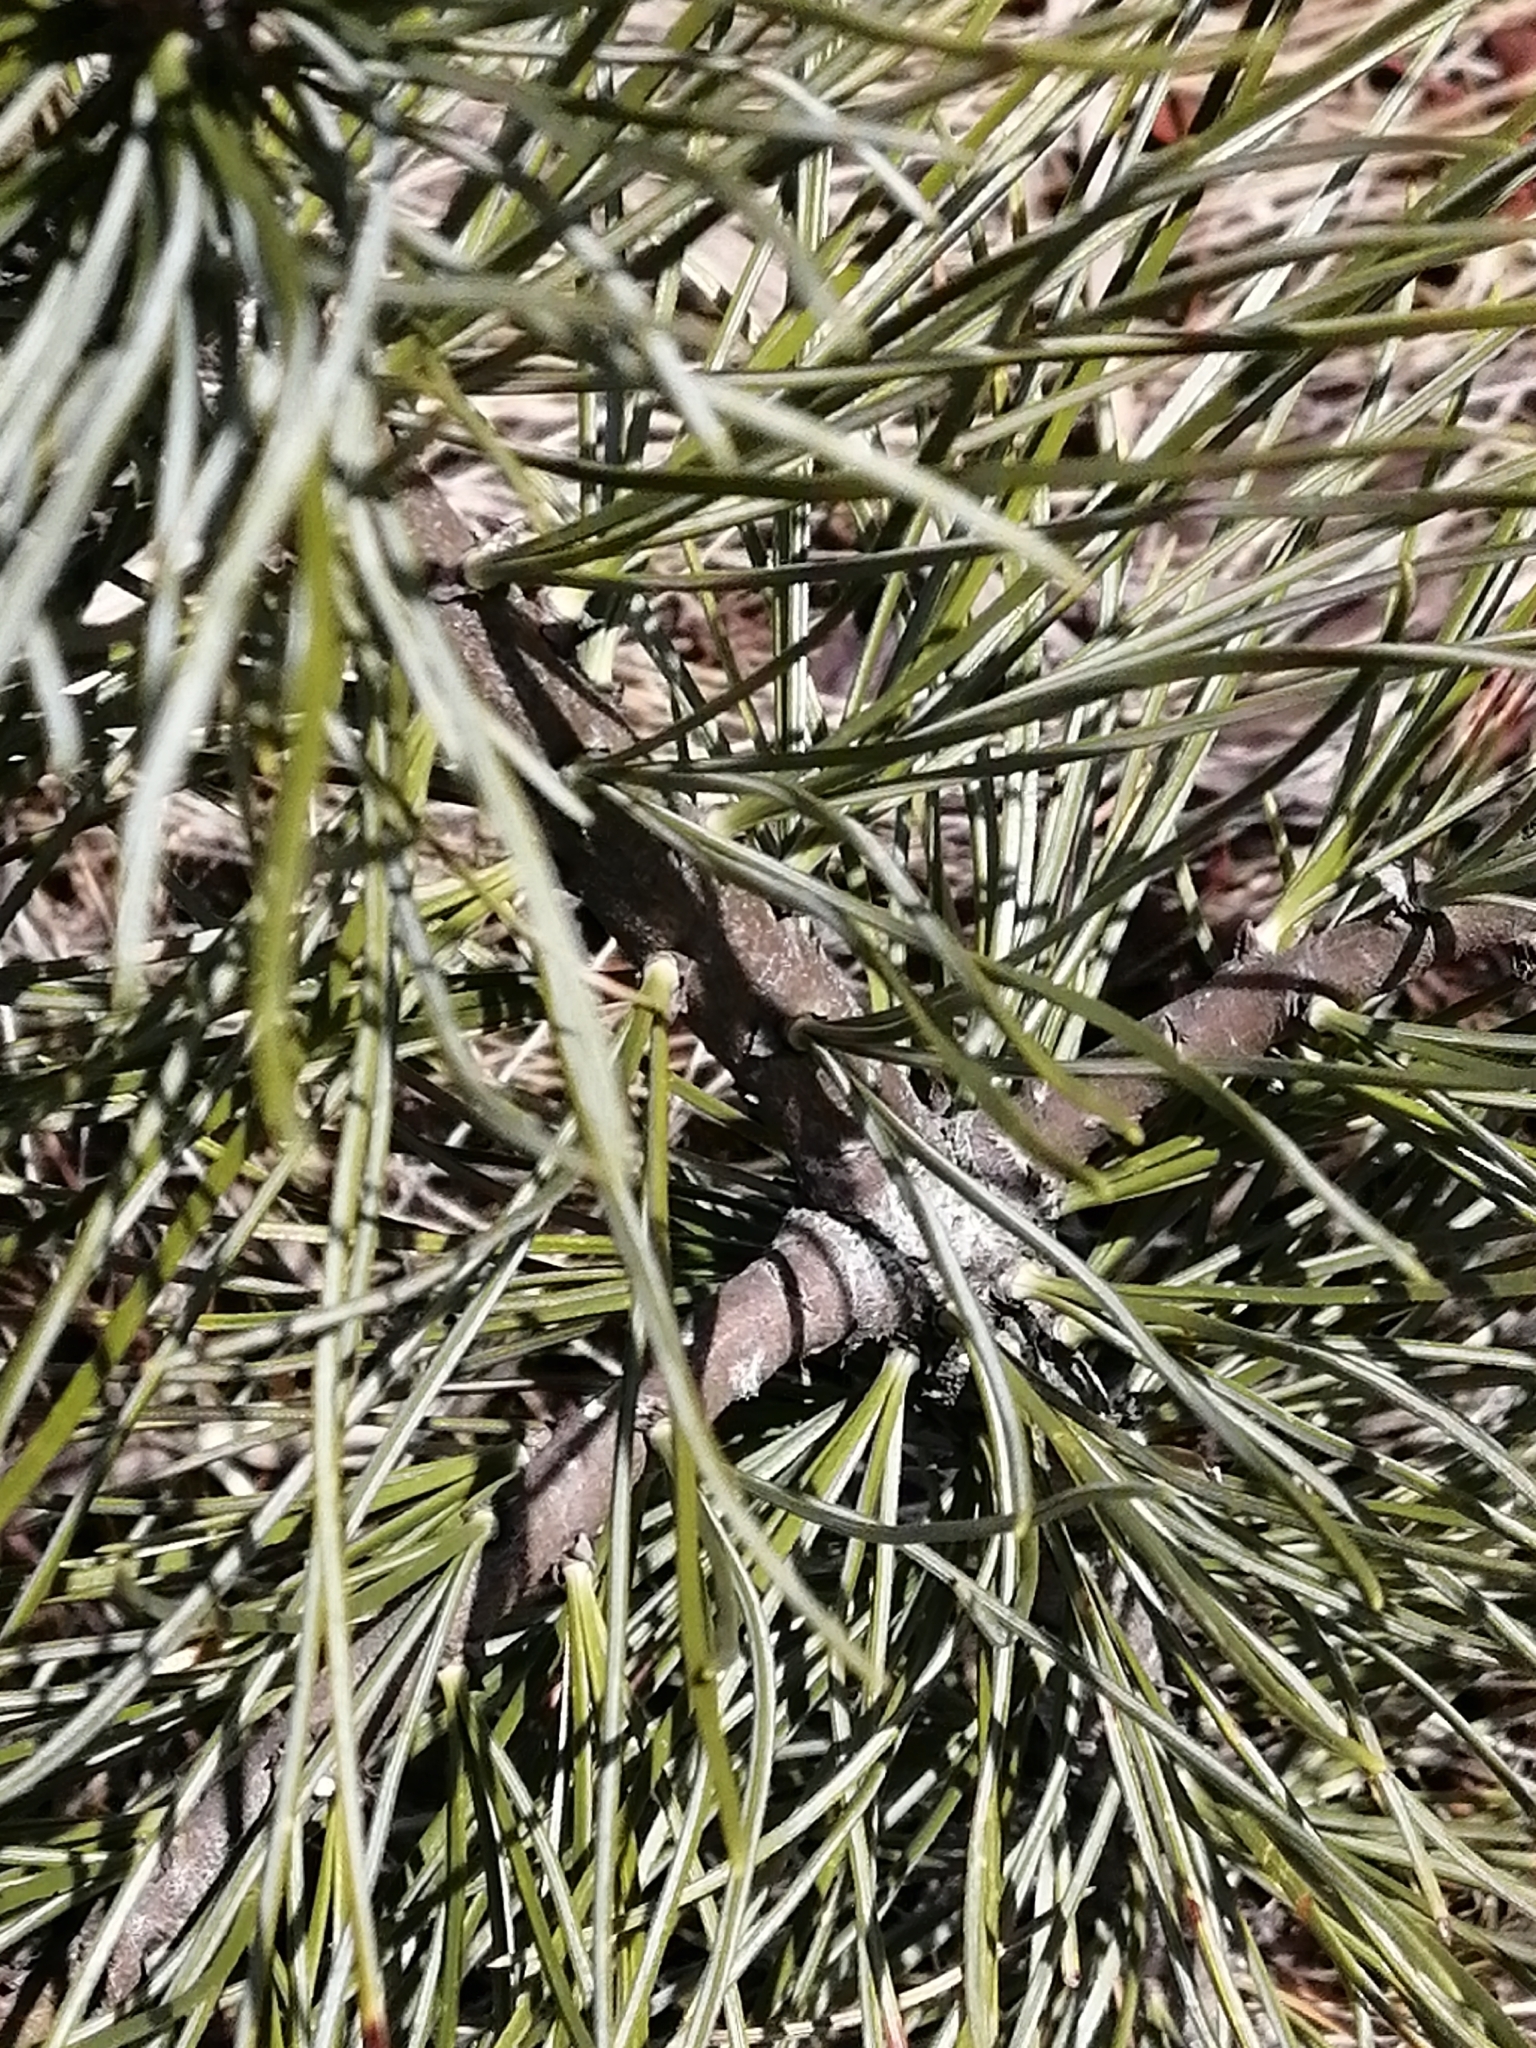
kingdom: Plantae
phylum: Tracheophyta
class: Pinopsida
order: Pinales
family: Pinaceae
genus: Pinus
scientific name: Pinus sibirica
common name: Siberian pine
